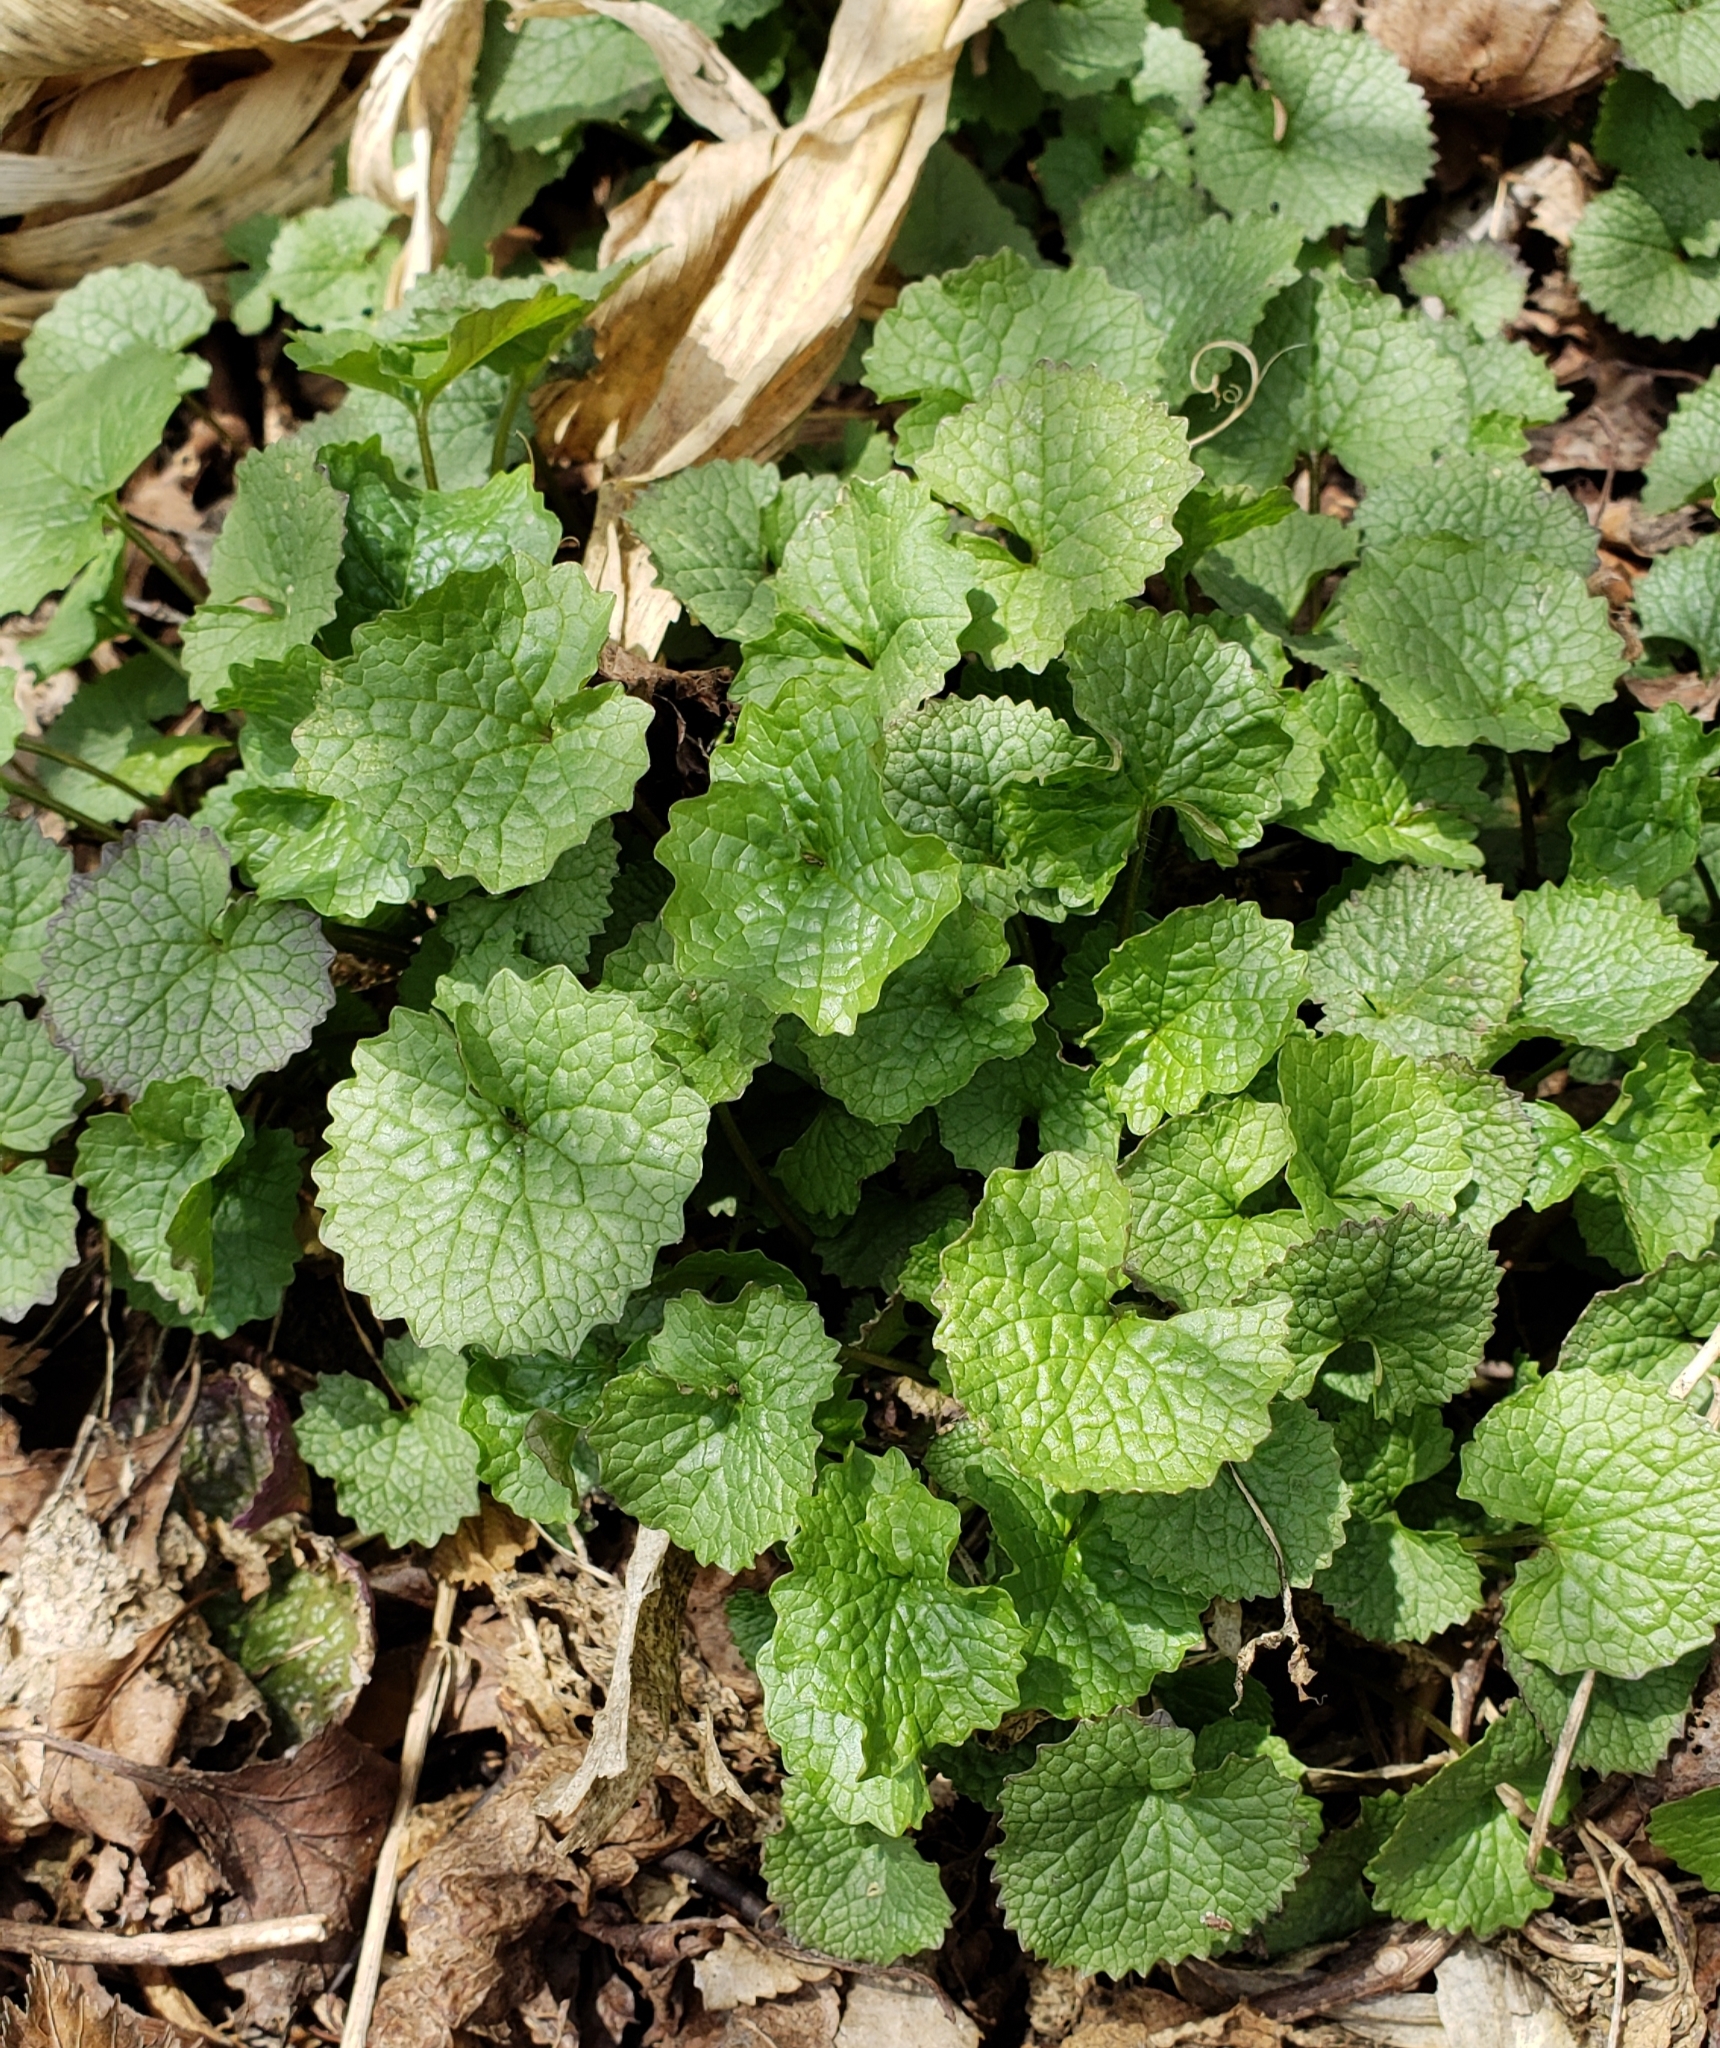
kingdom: Plantae
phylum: Tracheophyta
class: Magnoliopsida
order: Brassicales
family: Brassicaceae
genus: Alliaria
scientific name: Alliaria petiolata
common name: Garlic mustard
